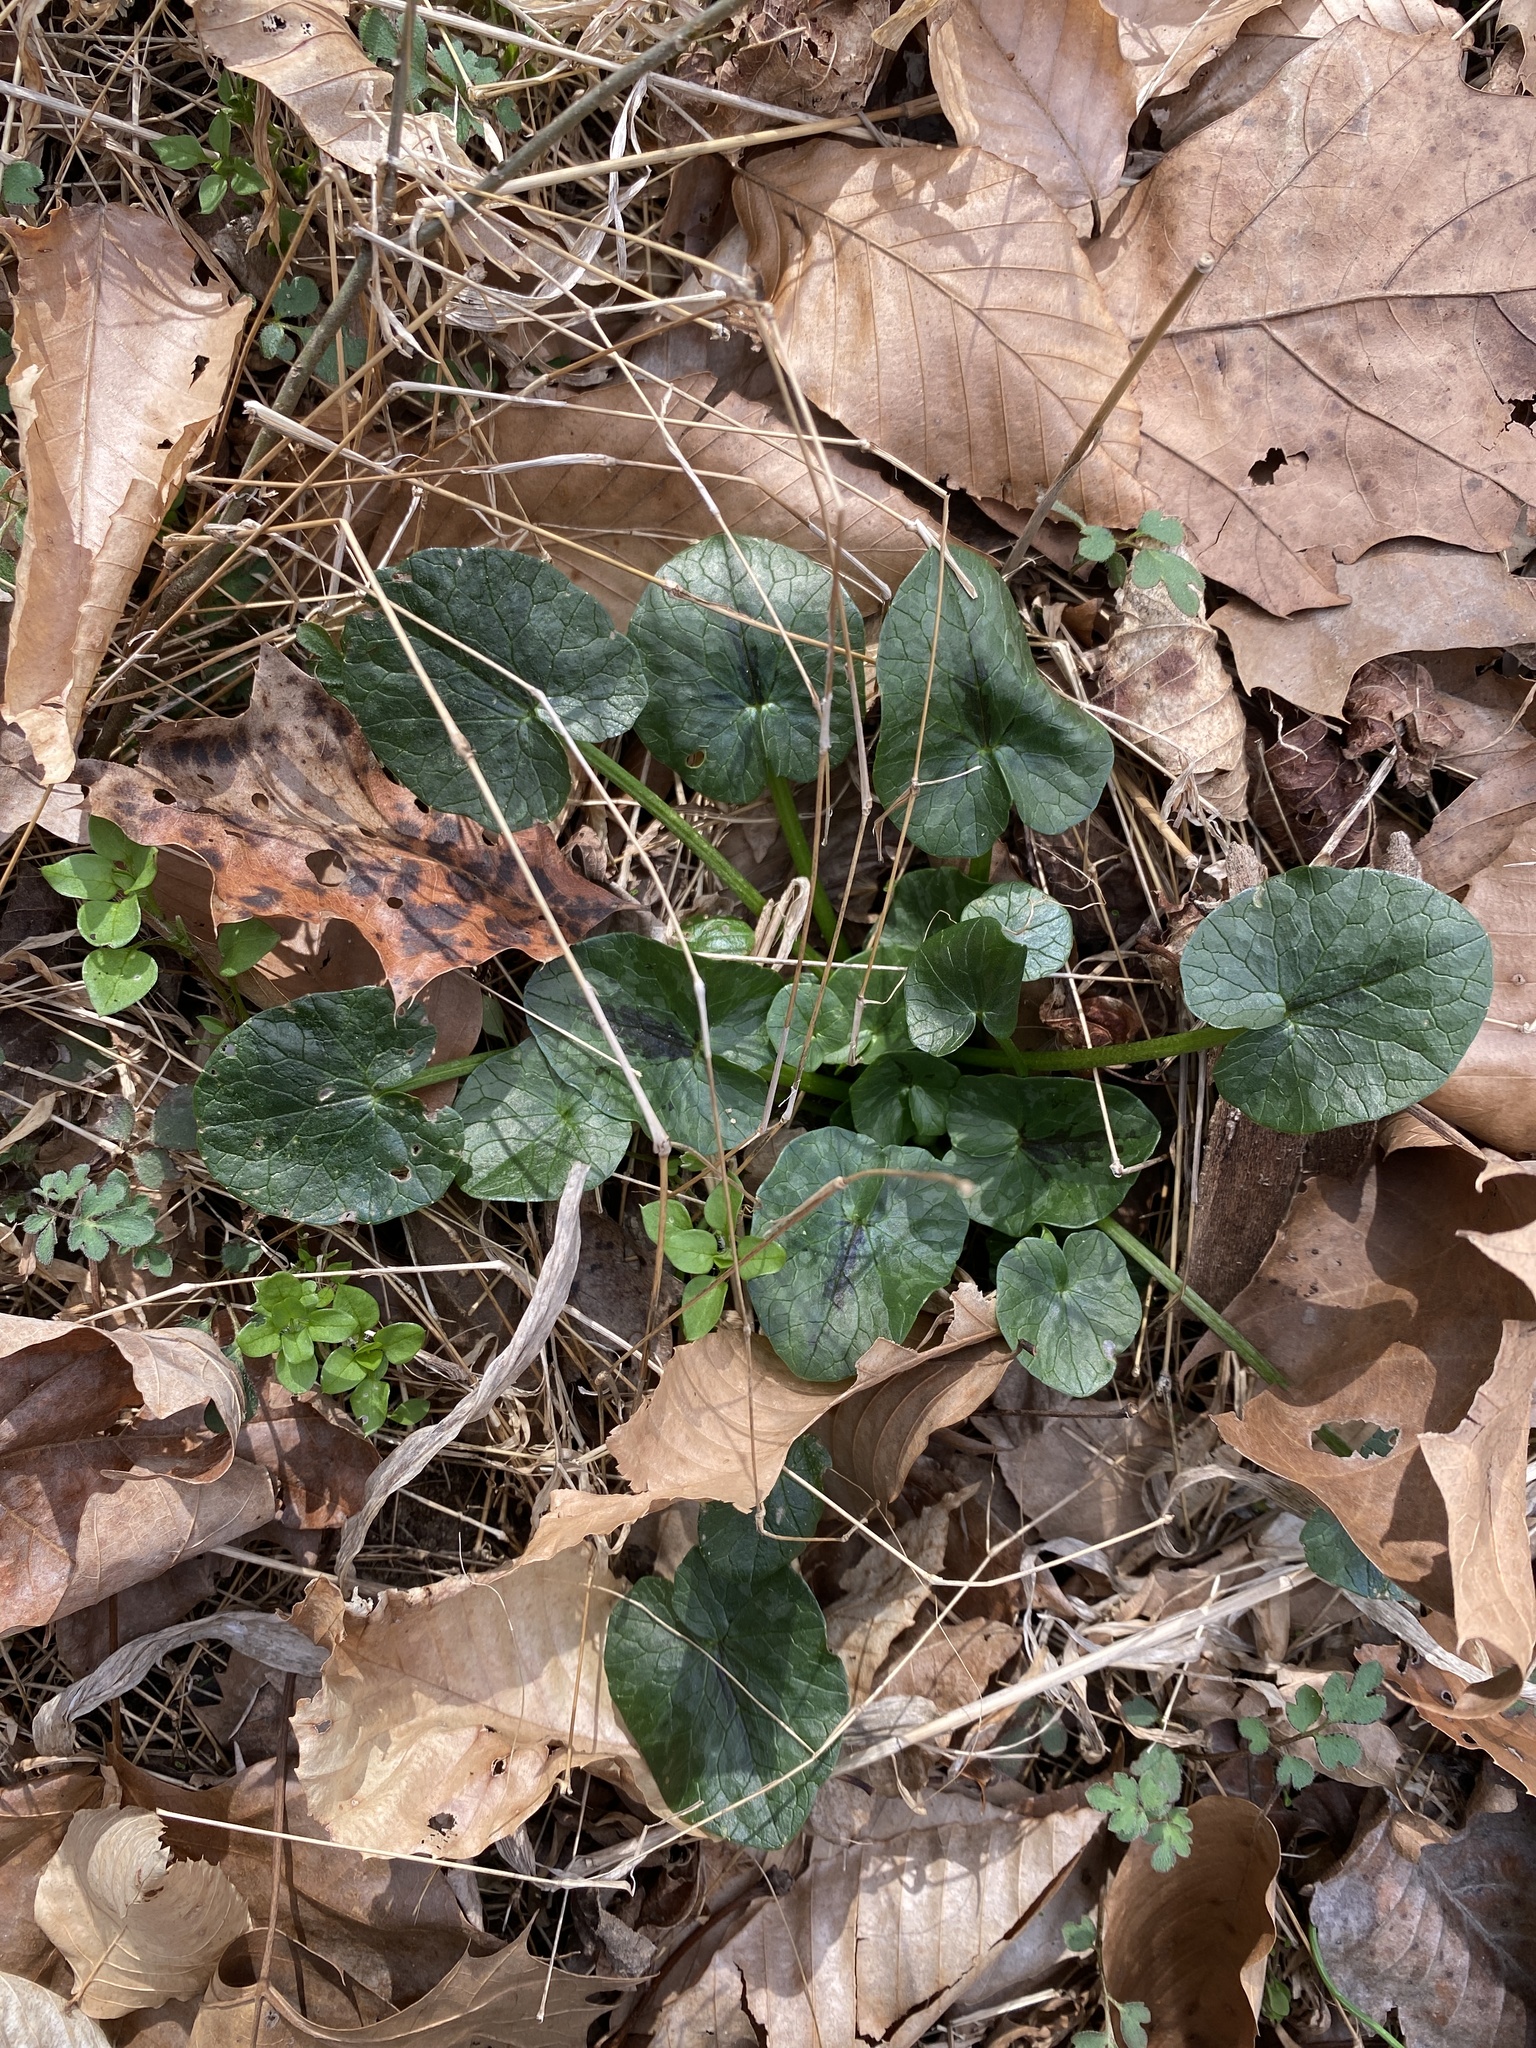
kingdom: Plantae
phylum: Tracheophyta
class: Magnoliopsida
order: Ranunculales
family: Ranunculaceae
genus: Ficaria
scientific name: Ficaria verna
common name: Lesser celandine
